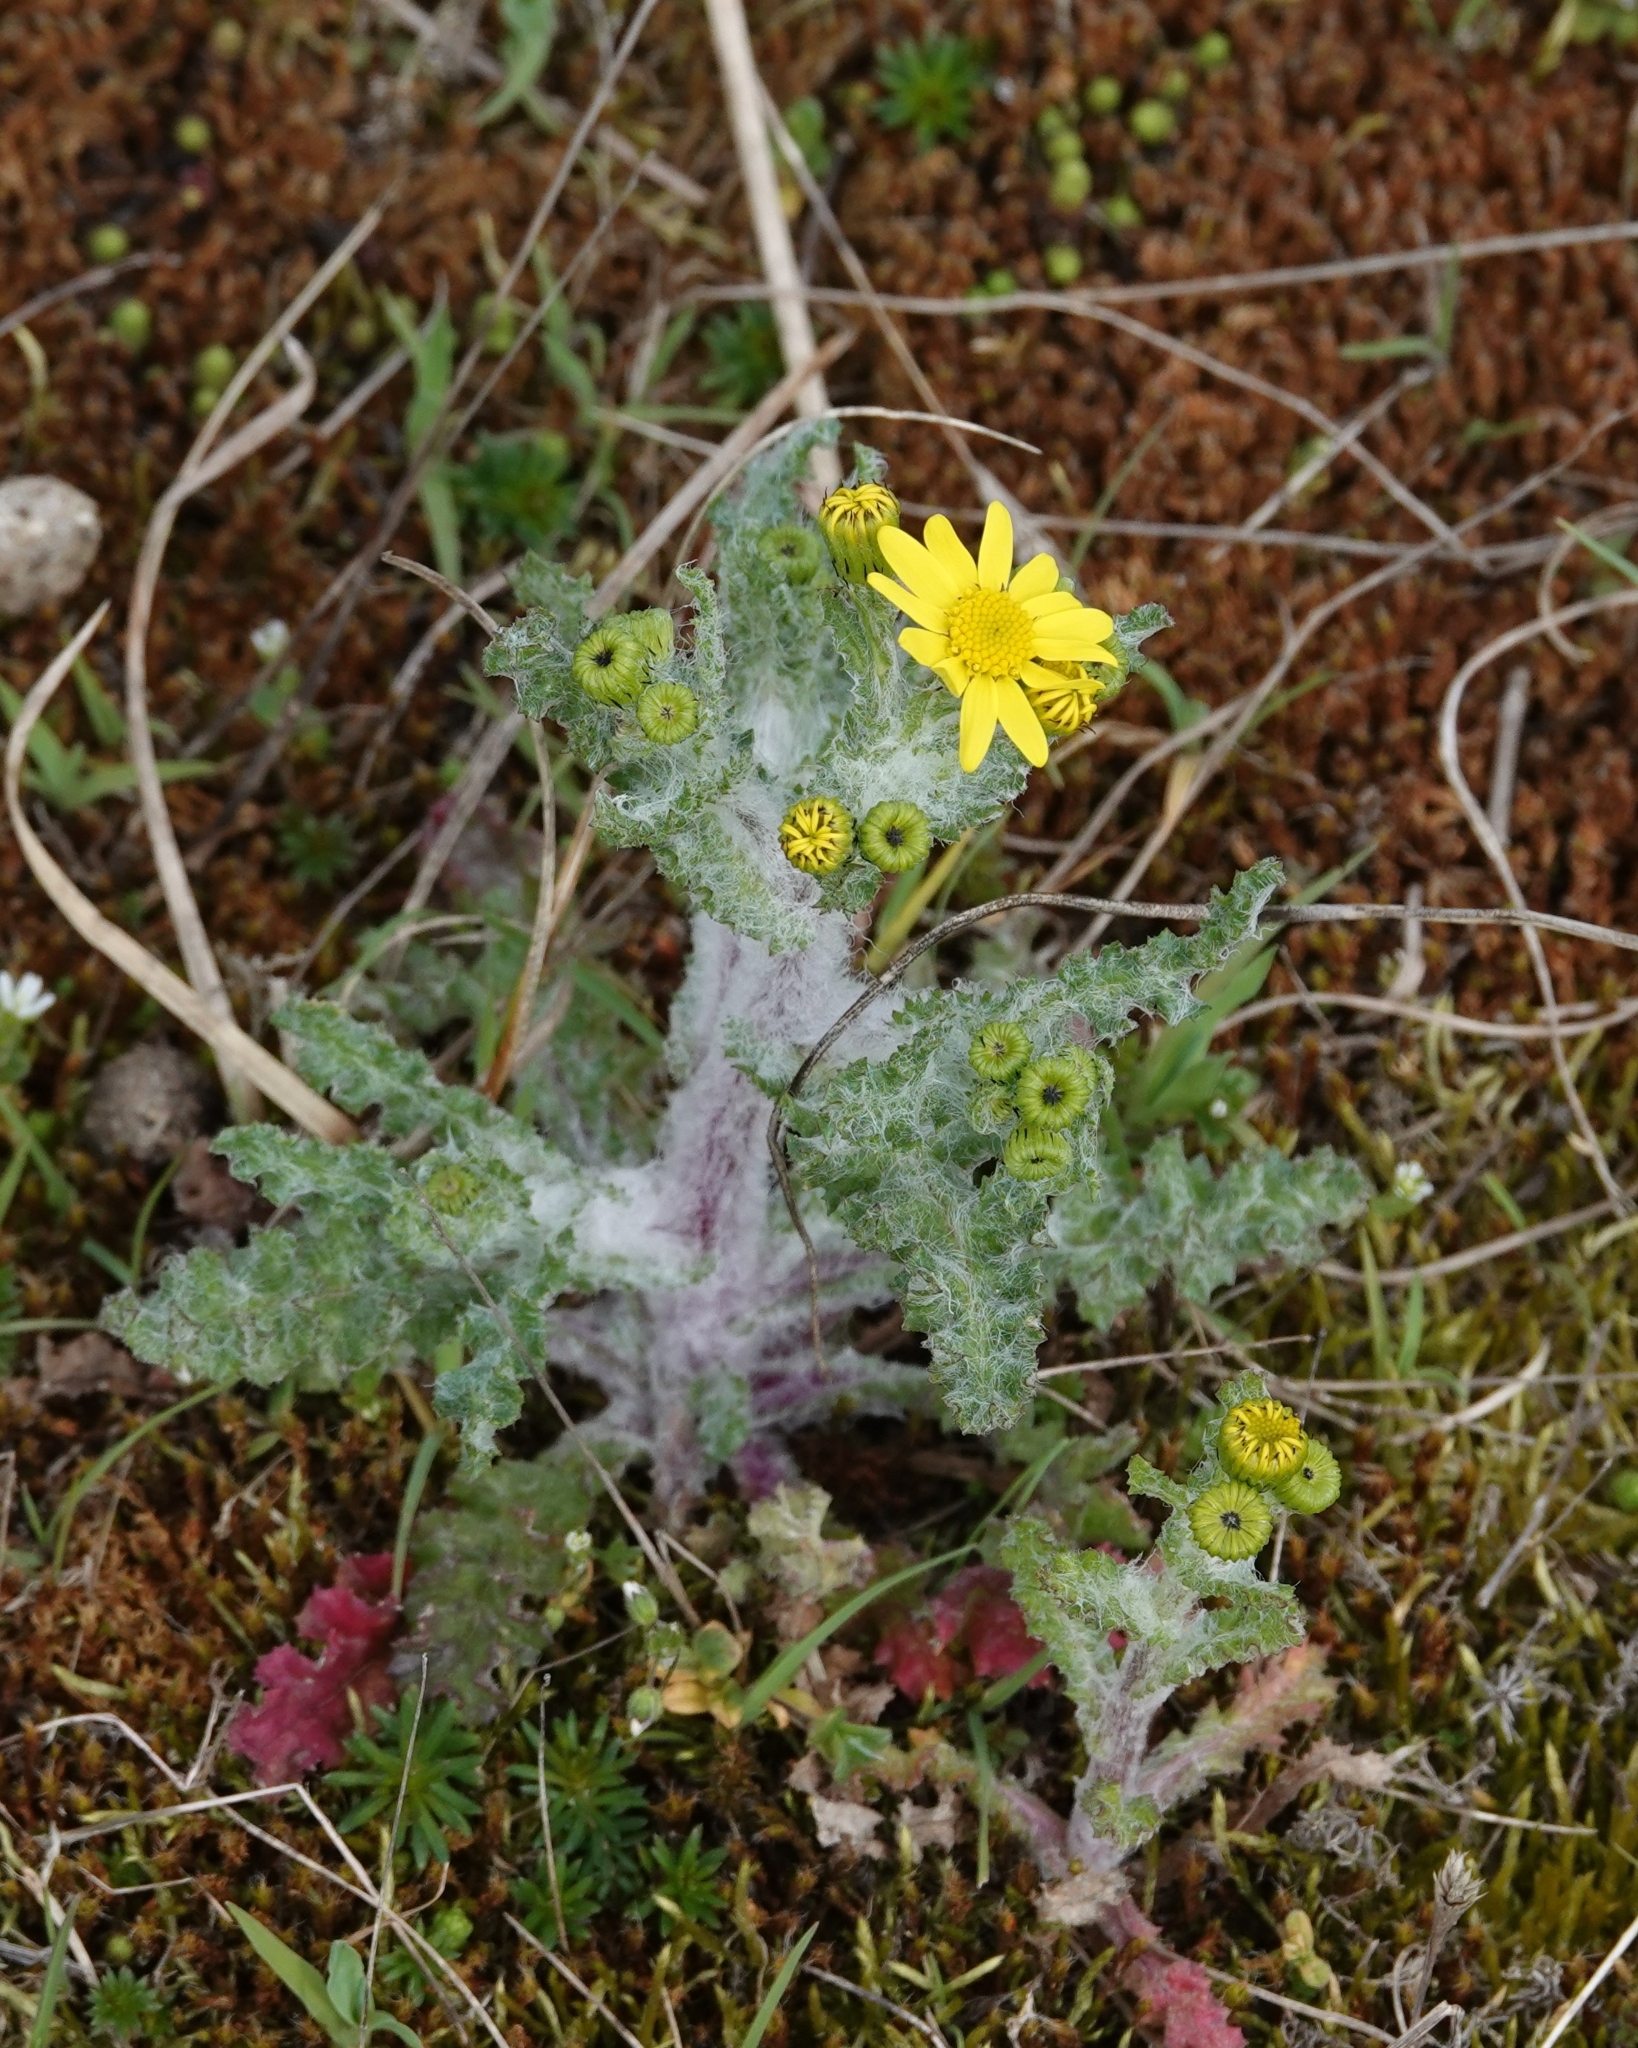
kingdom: Plantae
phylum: Tracheophyta
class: Magnoliopsida
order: Asterales
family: Asteraceae
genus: Senecio
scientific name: Senecio vernalis
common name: Eastern groundsel
